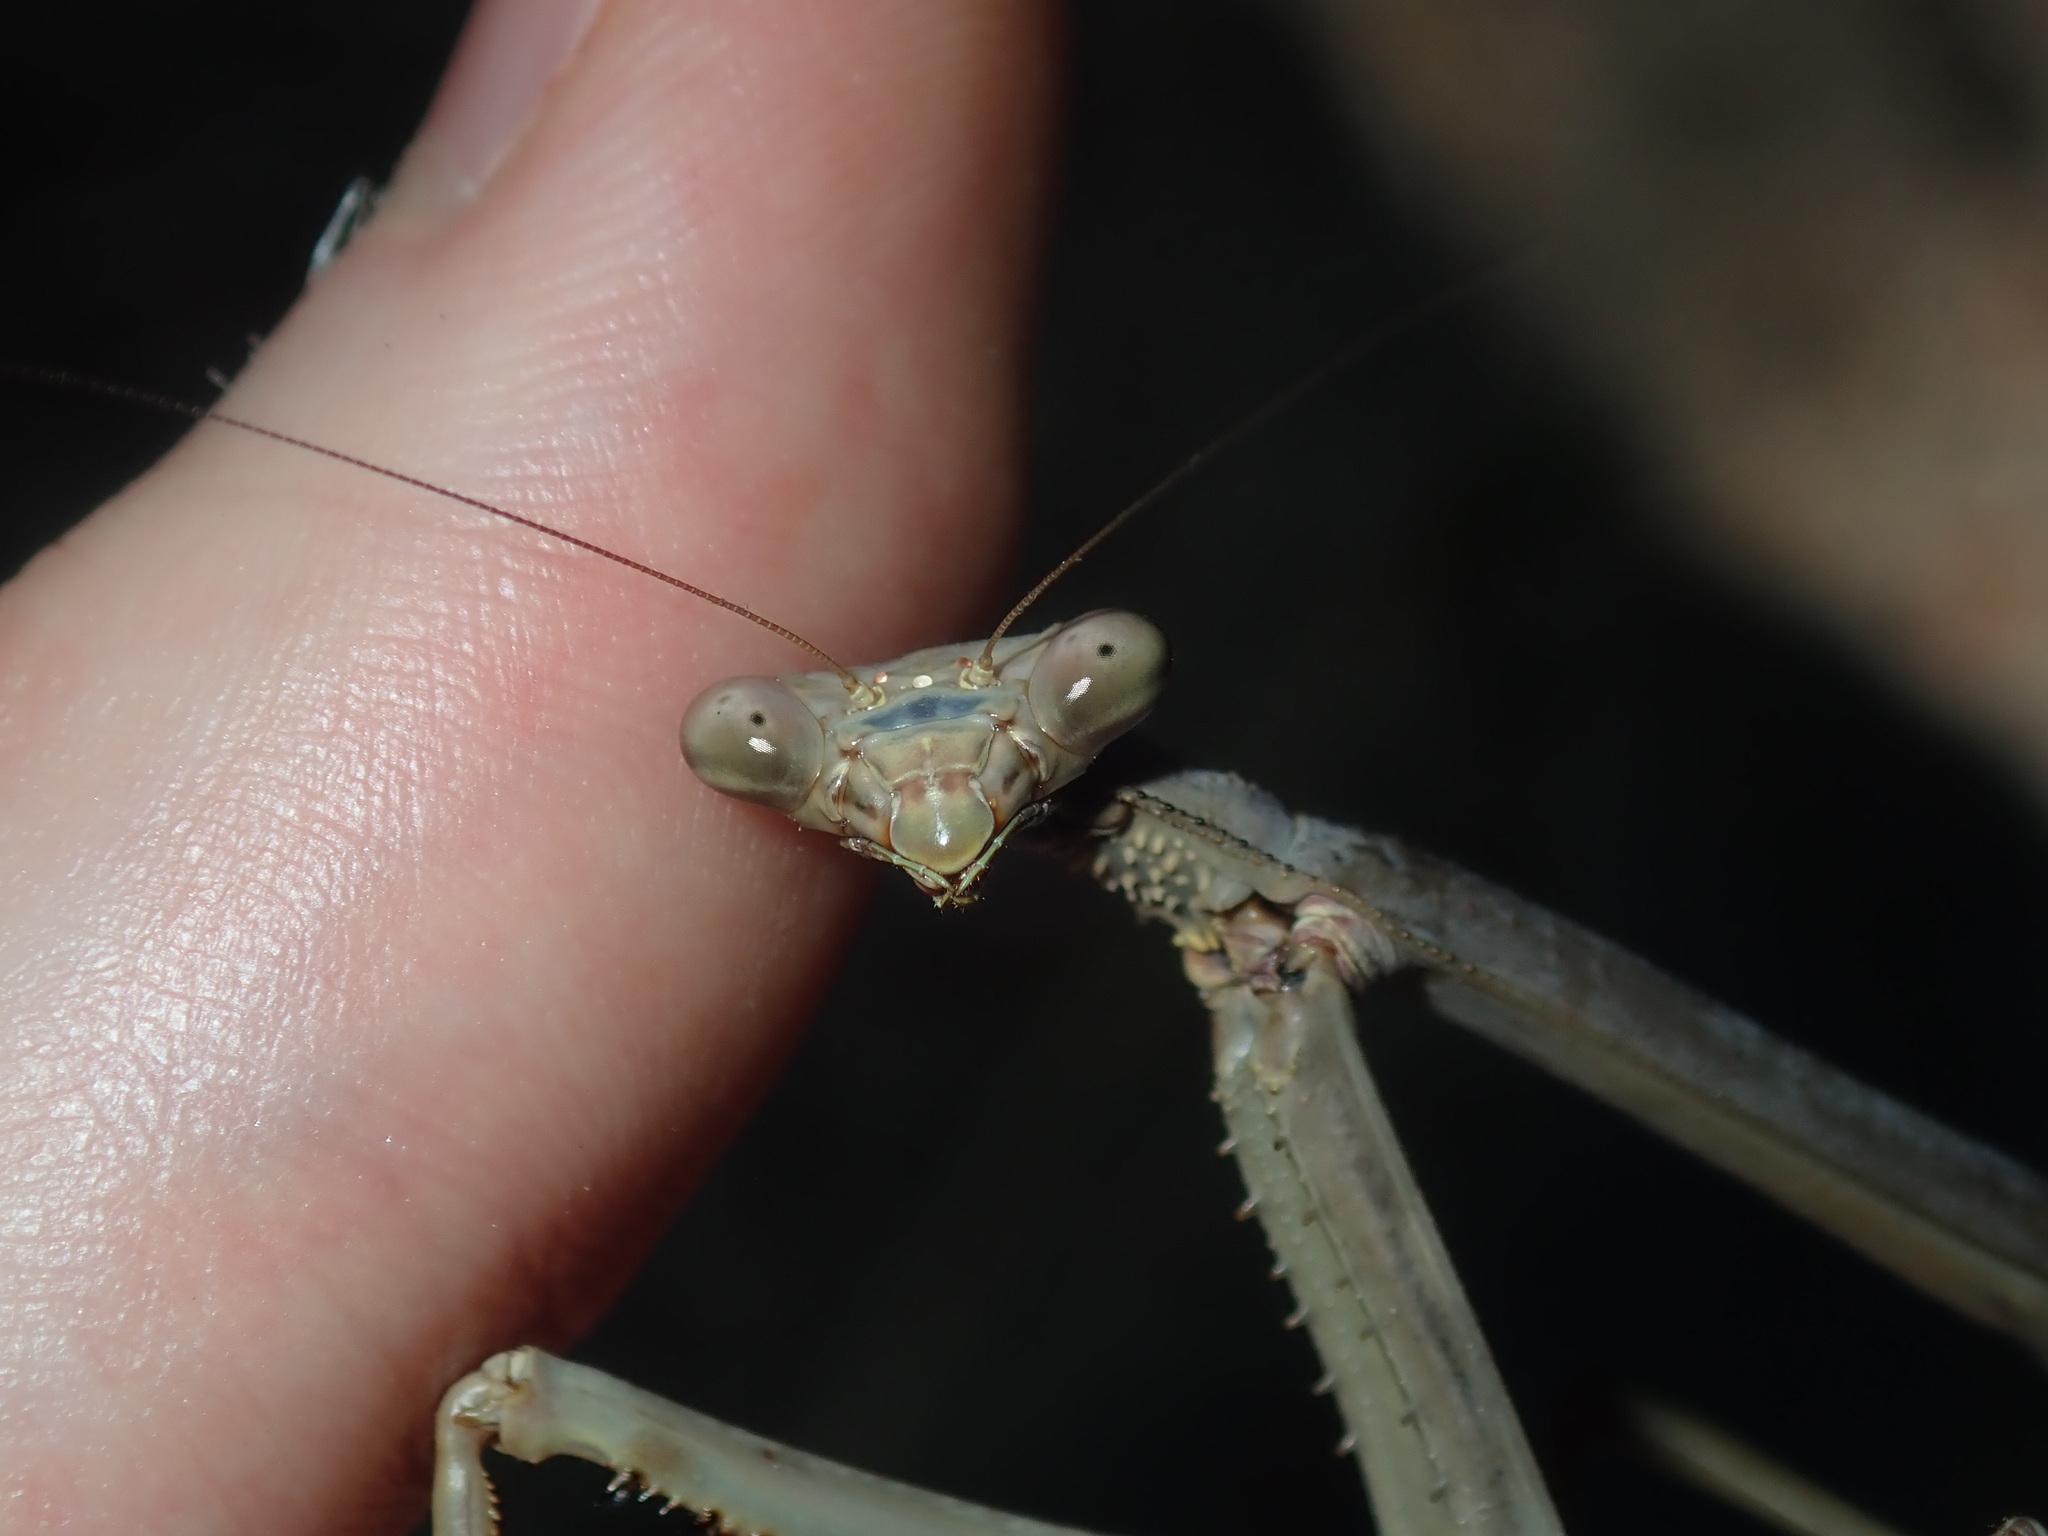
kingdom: Animalia
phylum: Arthropoda
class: Insecta
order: Mantodea
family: Mantidae
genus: Archimantis
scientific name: Archimantis latistyla
